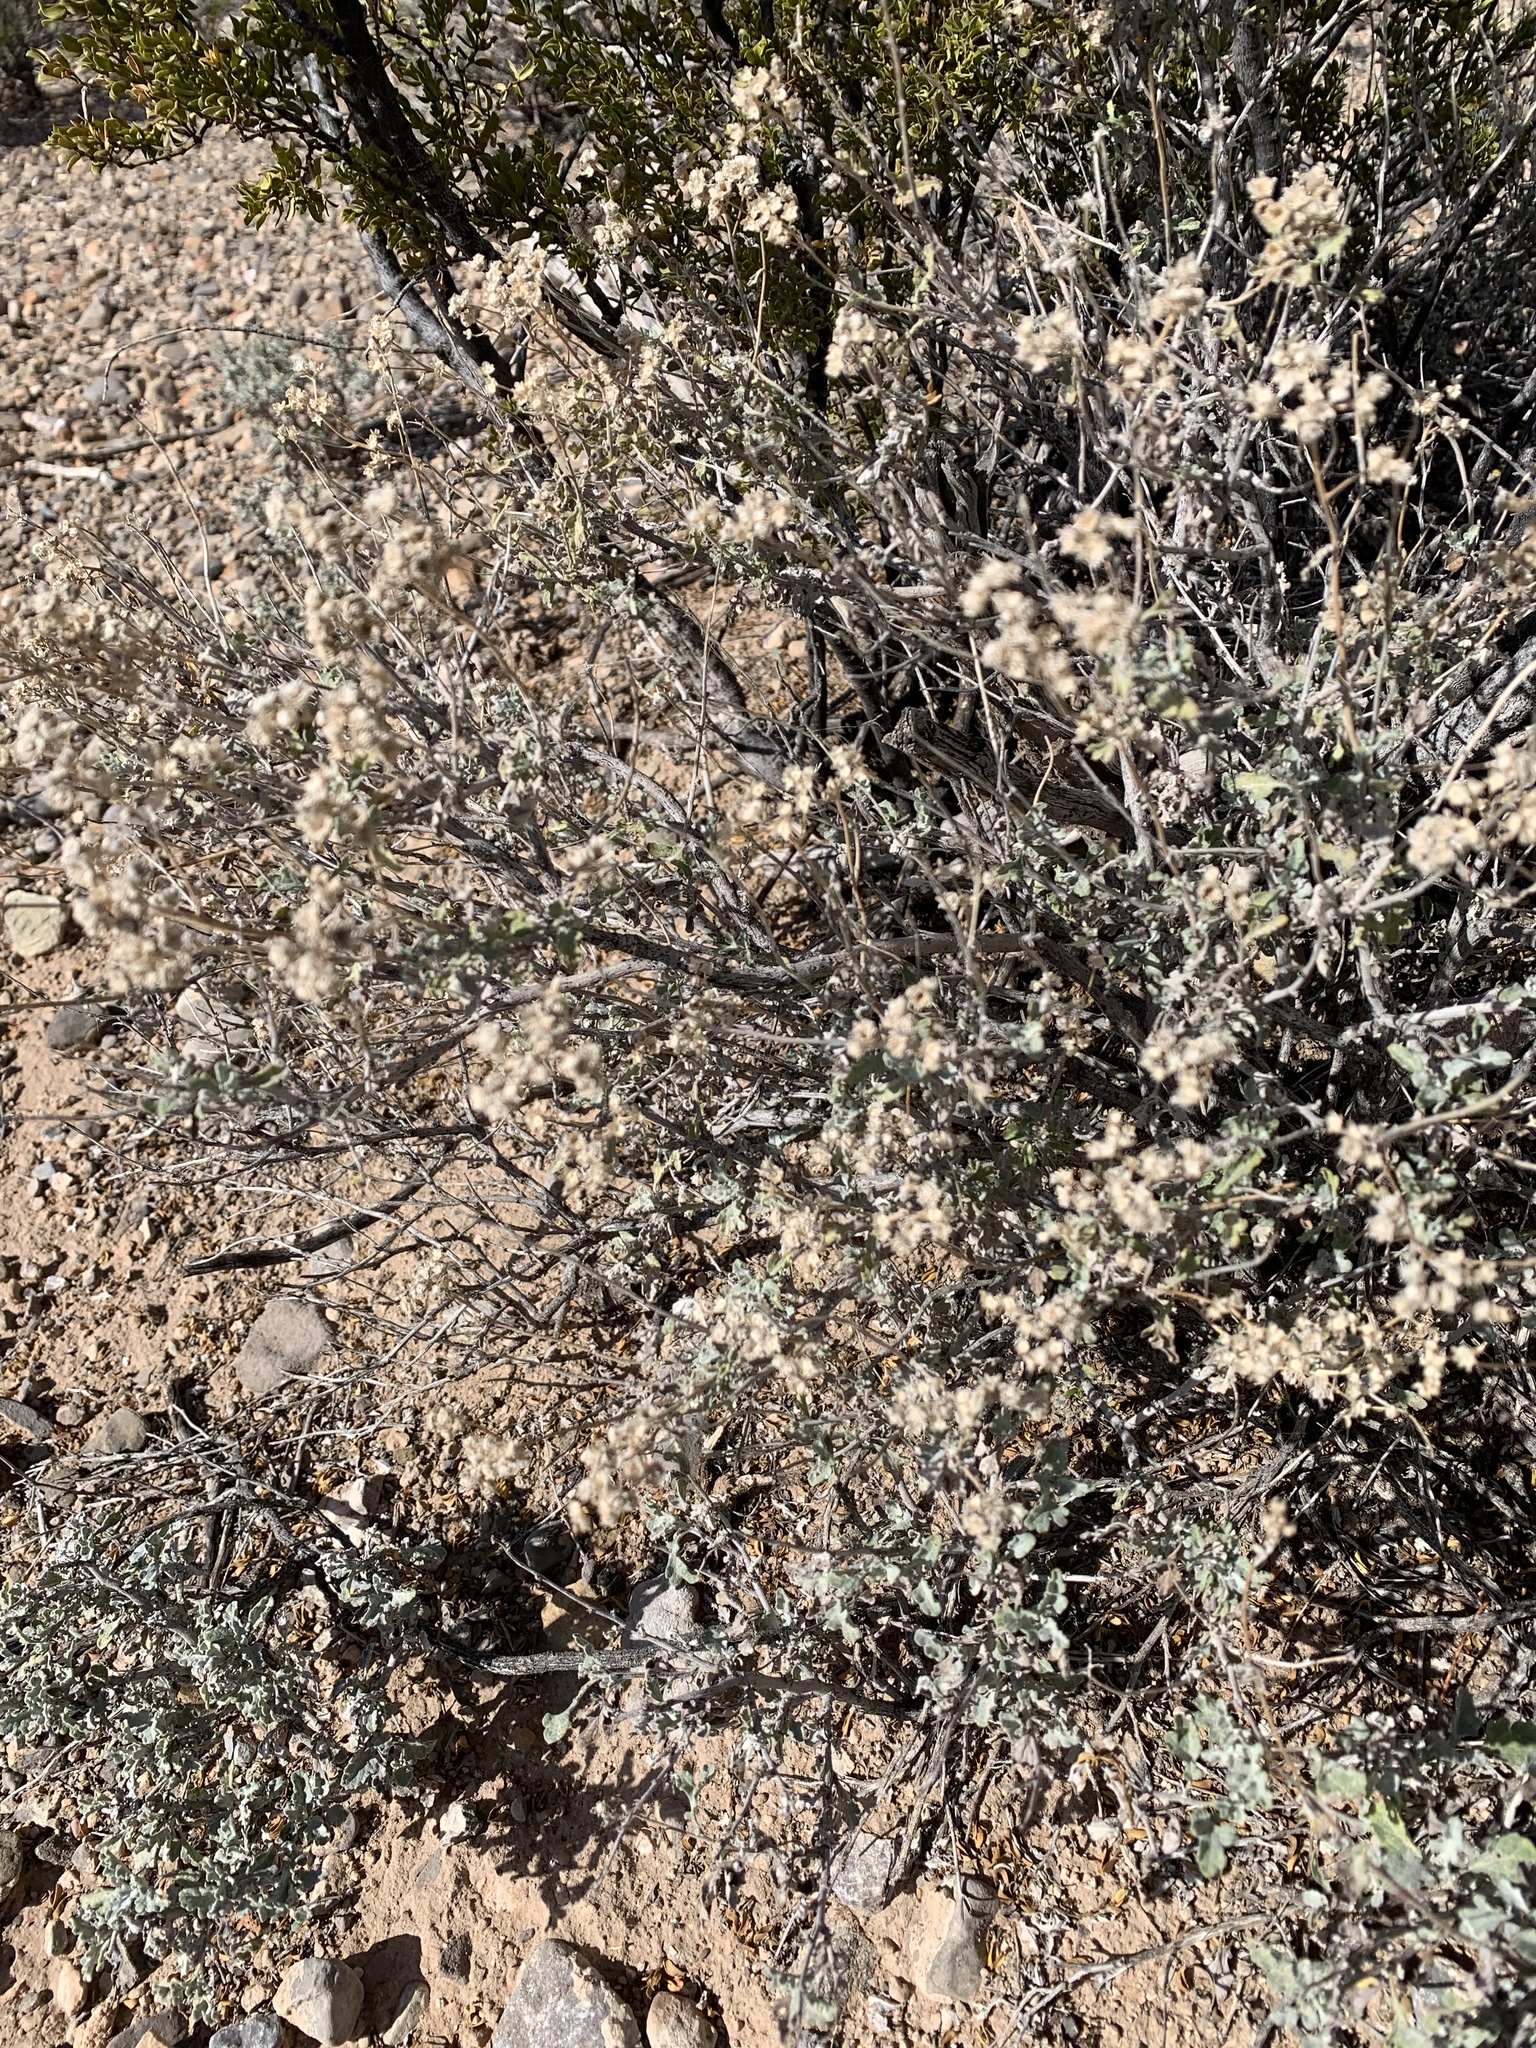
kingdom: Plantae
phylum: Tracheophyta
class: Magnoliopsida
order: Asterales
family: Asteraceae
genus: Parthenium
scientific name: Parthenium incanum
